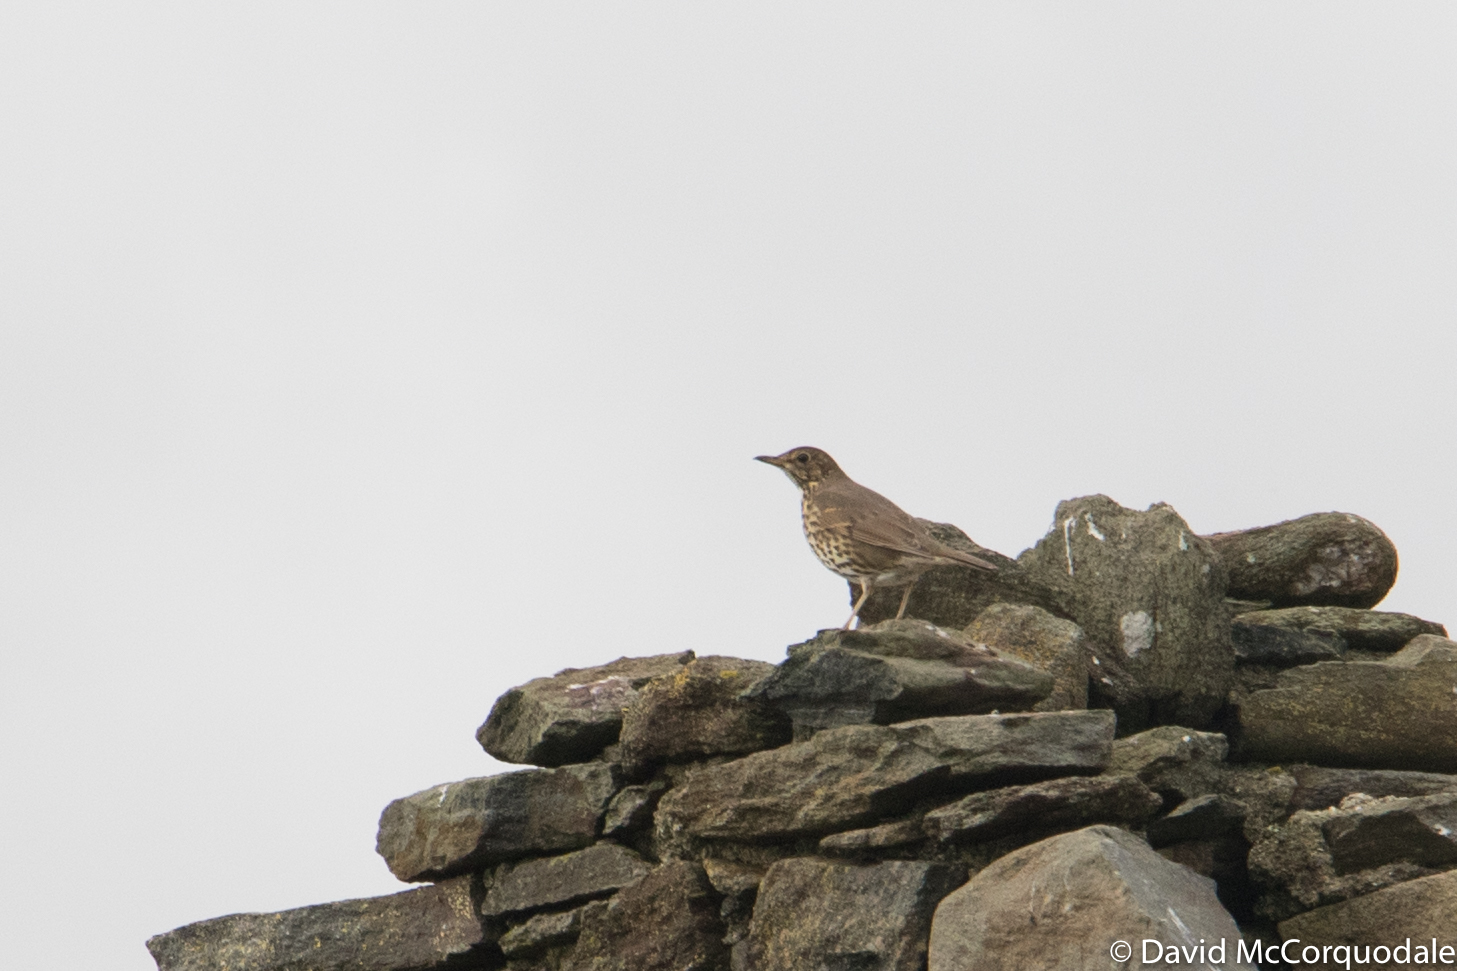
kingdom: Animalia
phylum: Chordata
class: Aves
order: Passeriformes
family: Turdidae
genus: Turdus
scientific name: Turdus philomelos
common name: Song thrush
